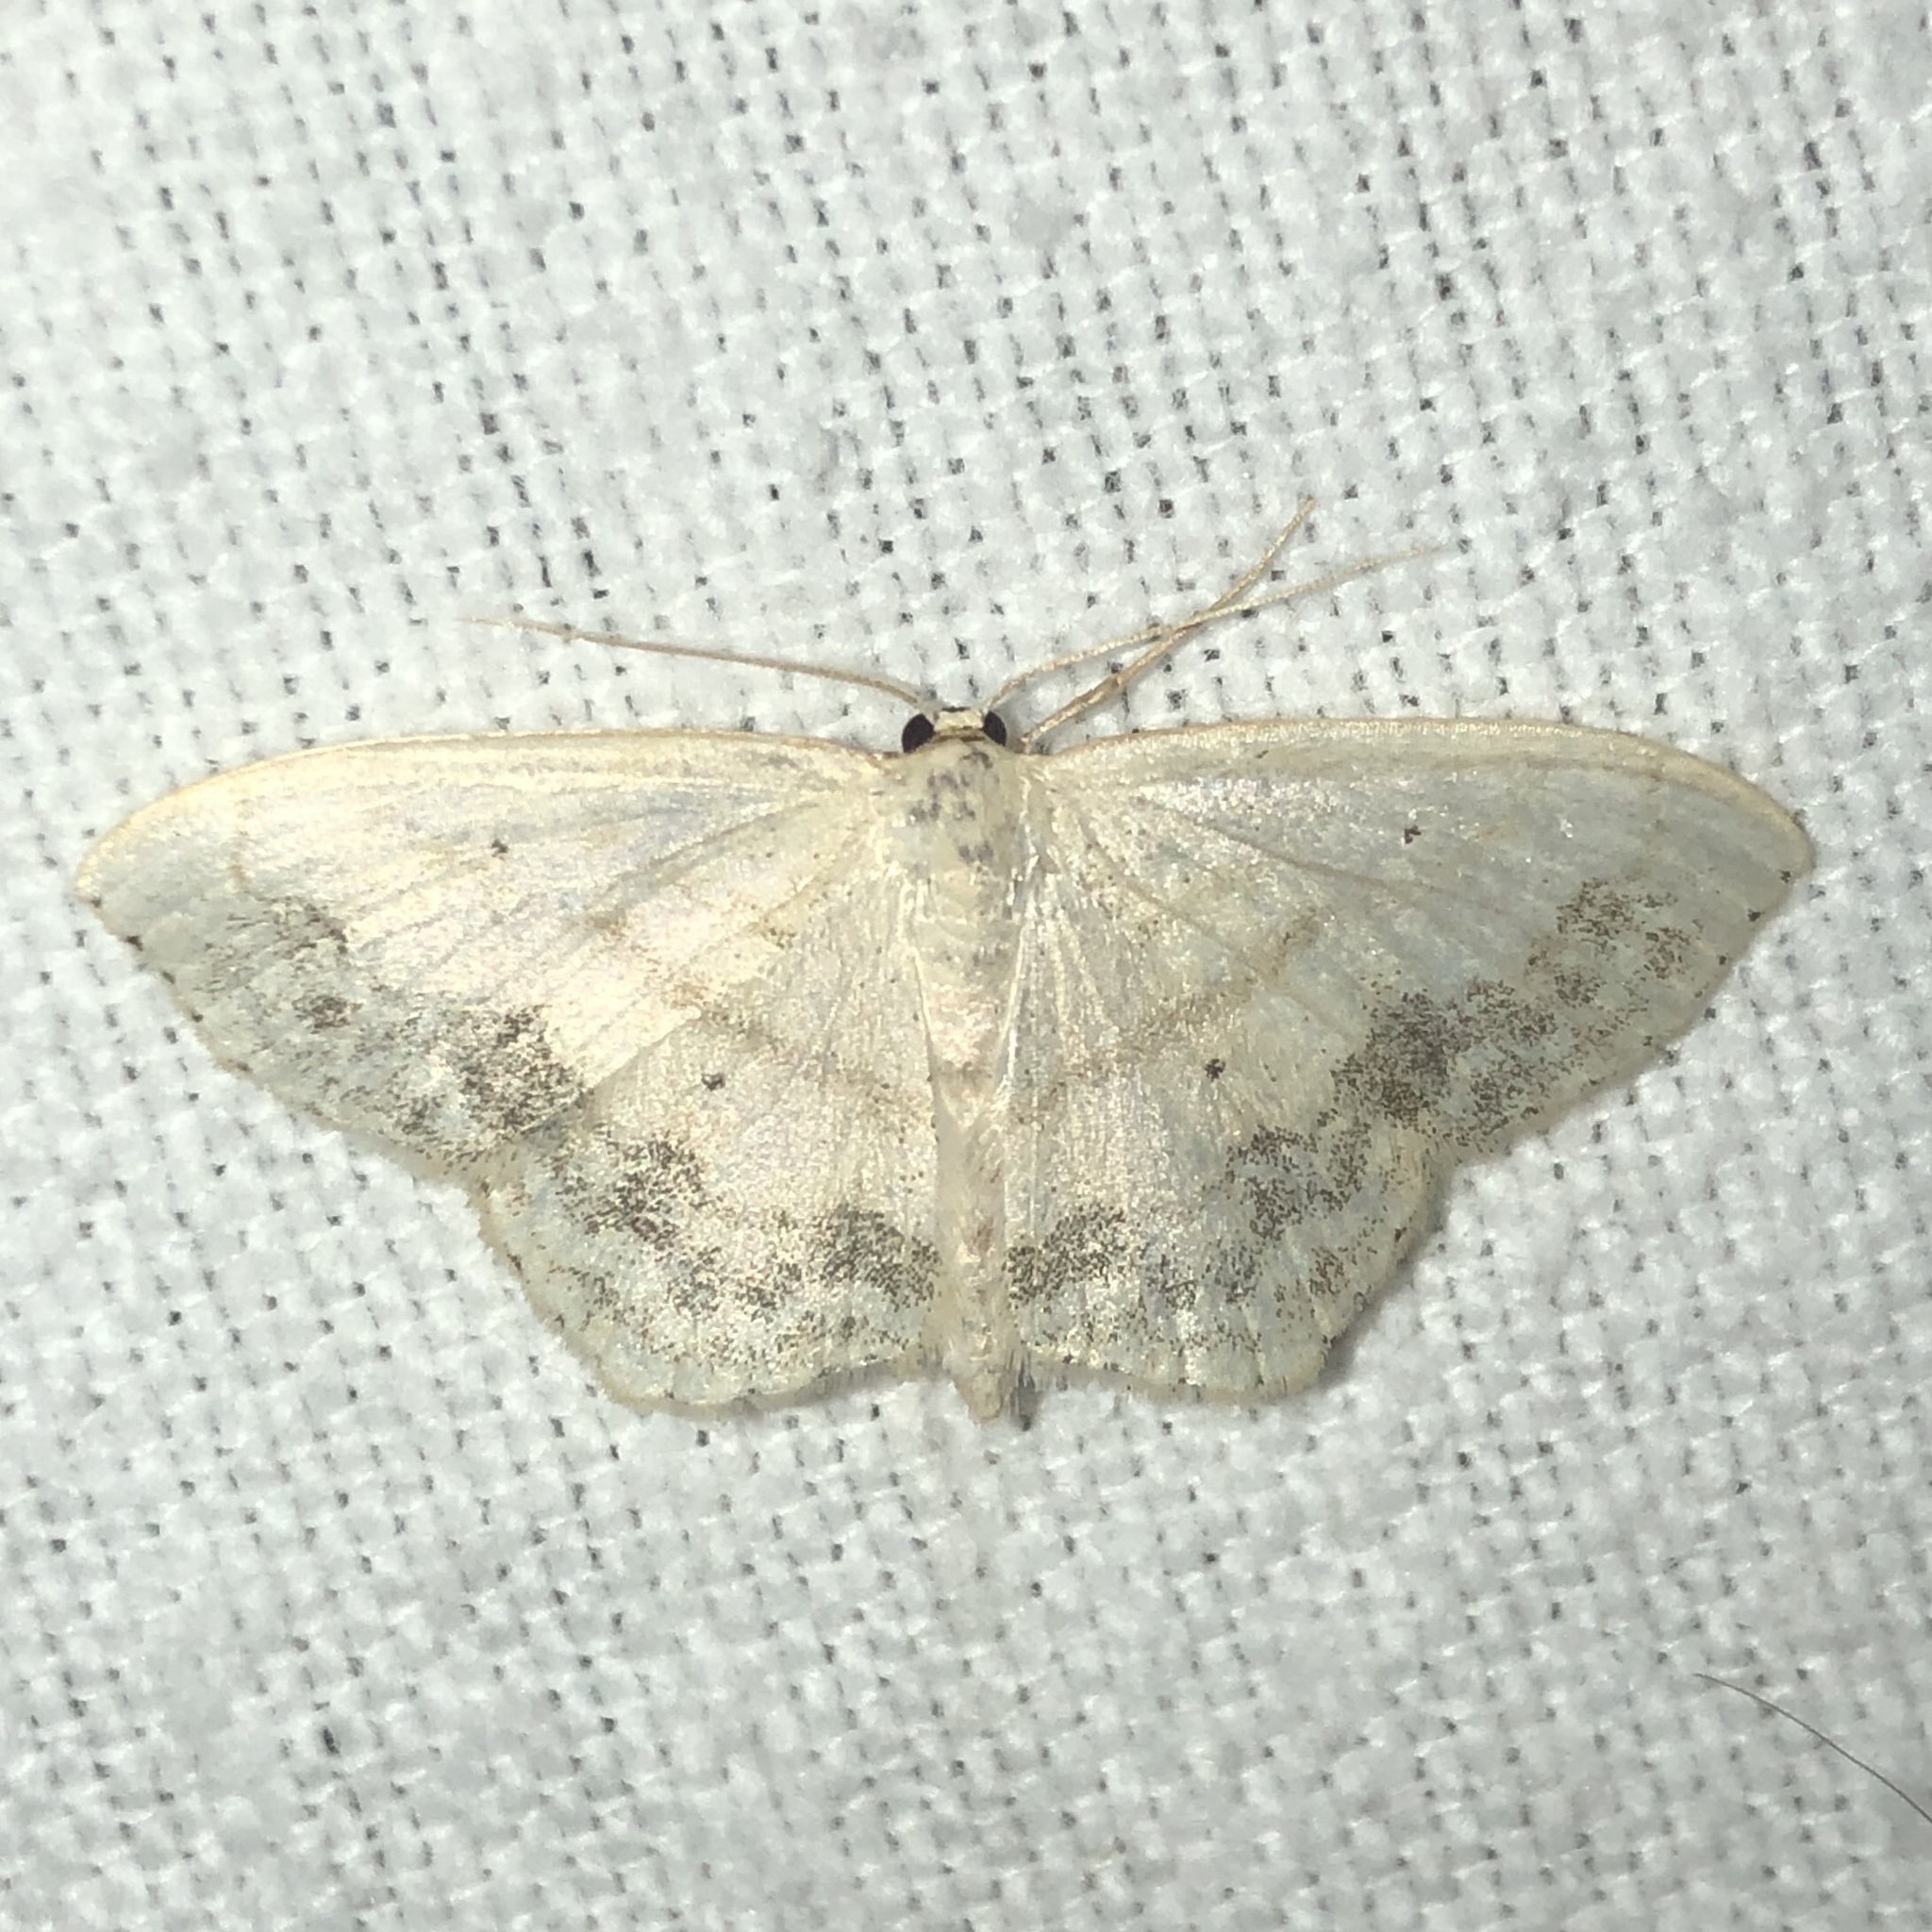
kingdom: Animalia
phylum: Arthropoda
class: Insecta
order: Lepidoptera
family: Geometridae
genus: Scopula
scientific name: Scopula limboundata
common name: Large lace border
